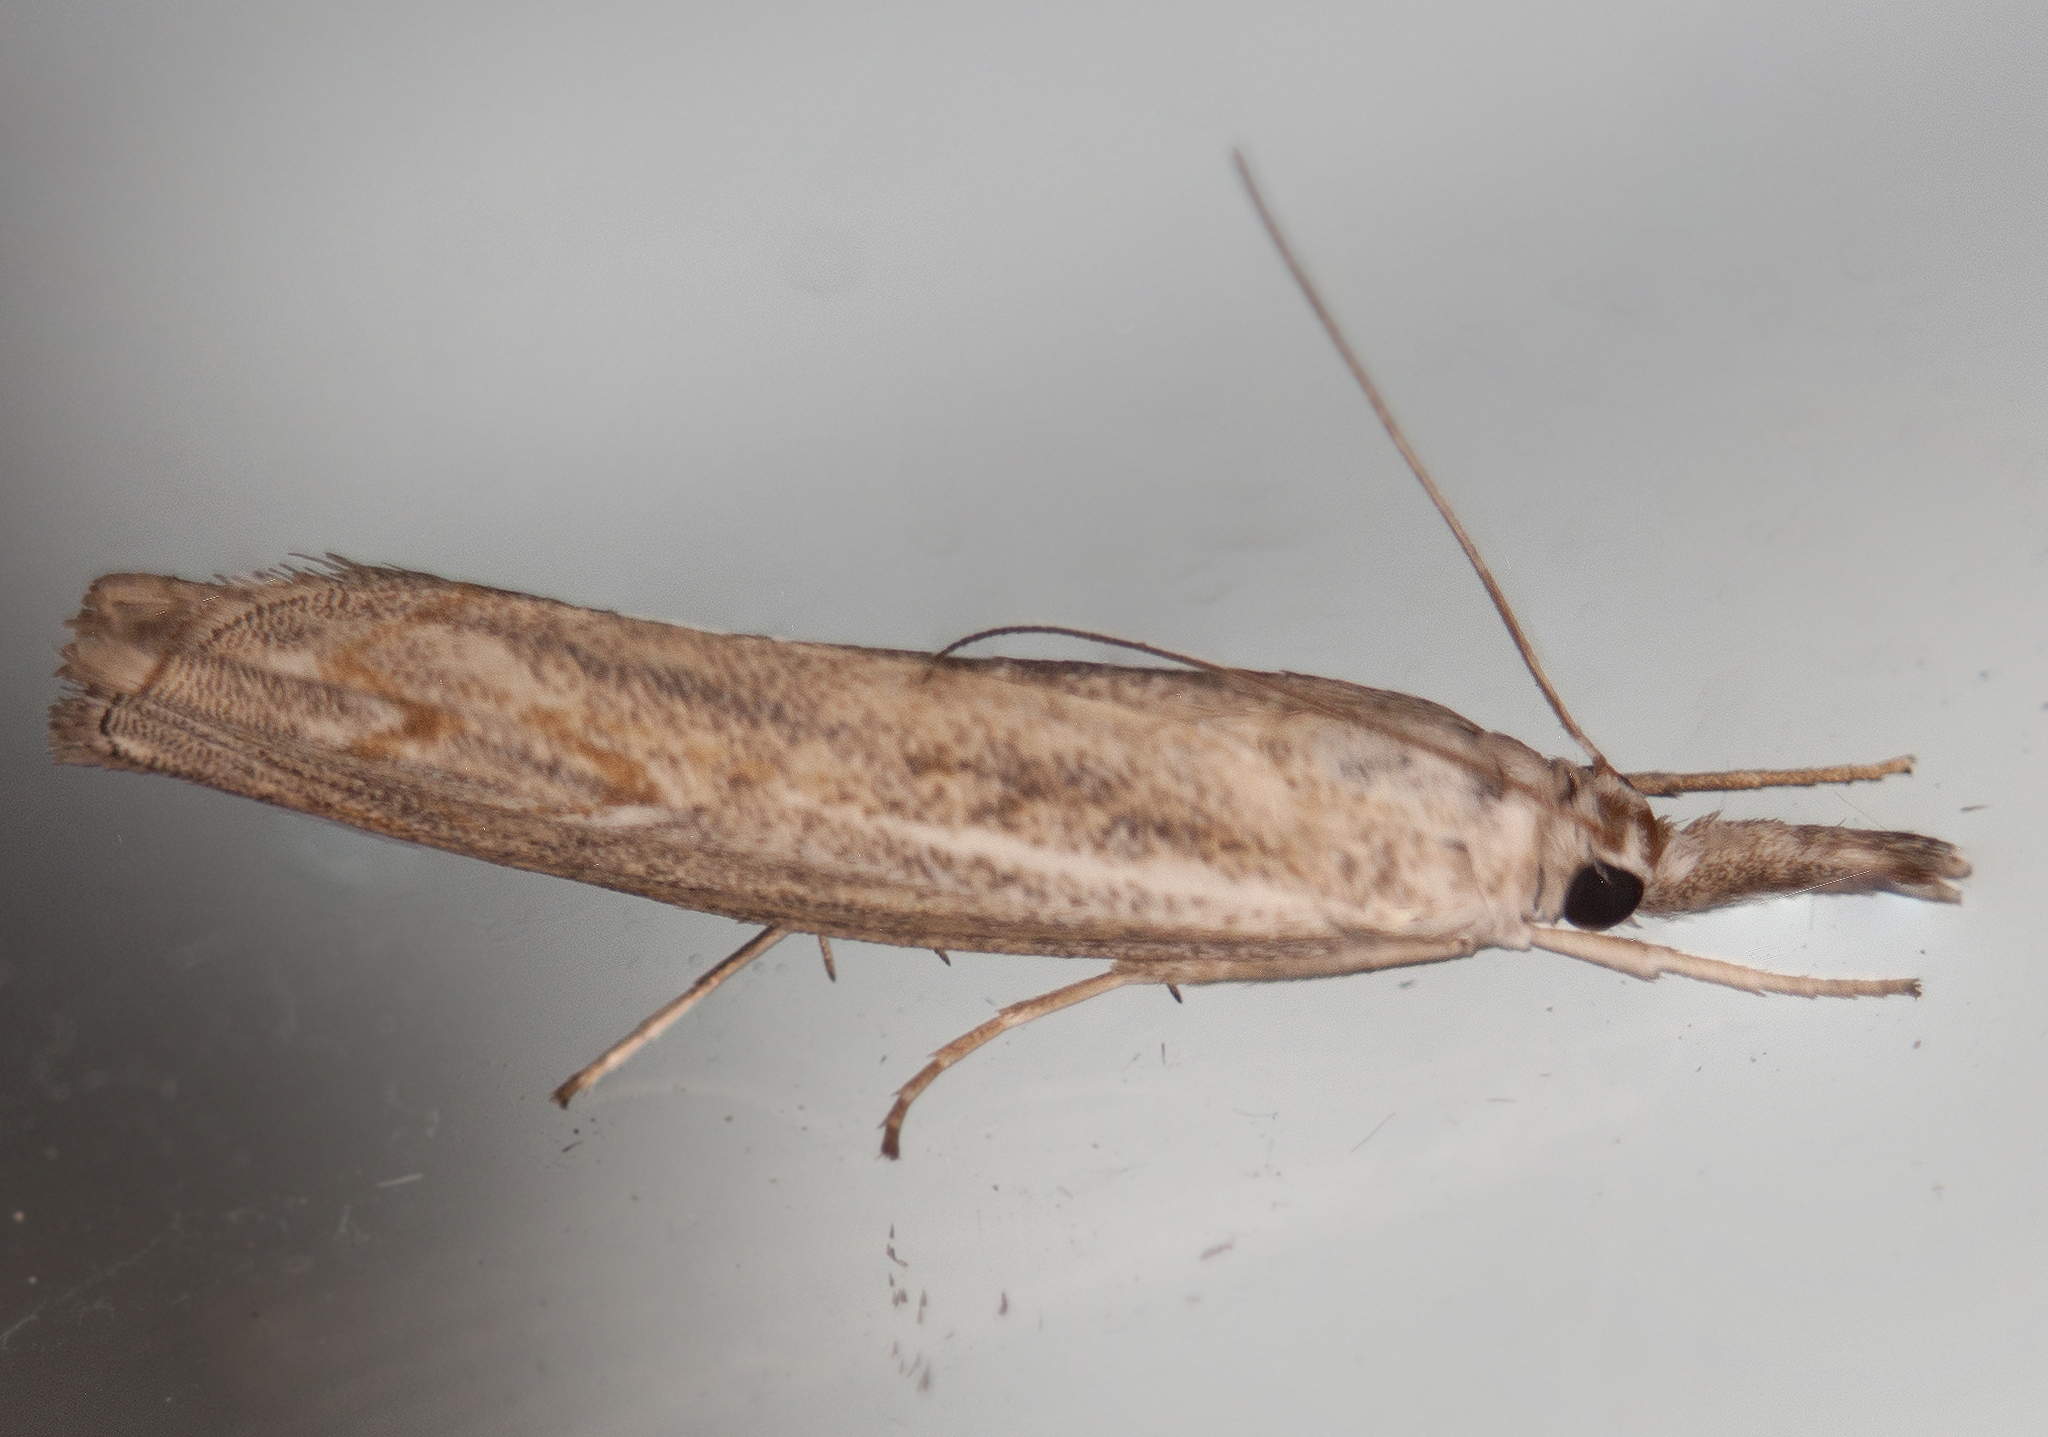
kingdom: Animalia
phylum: Arthropoda
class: Insecta
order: Lepidoptera
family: Crambidae
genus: Culladia
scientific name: Culladia cuneiferellus
